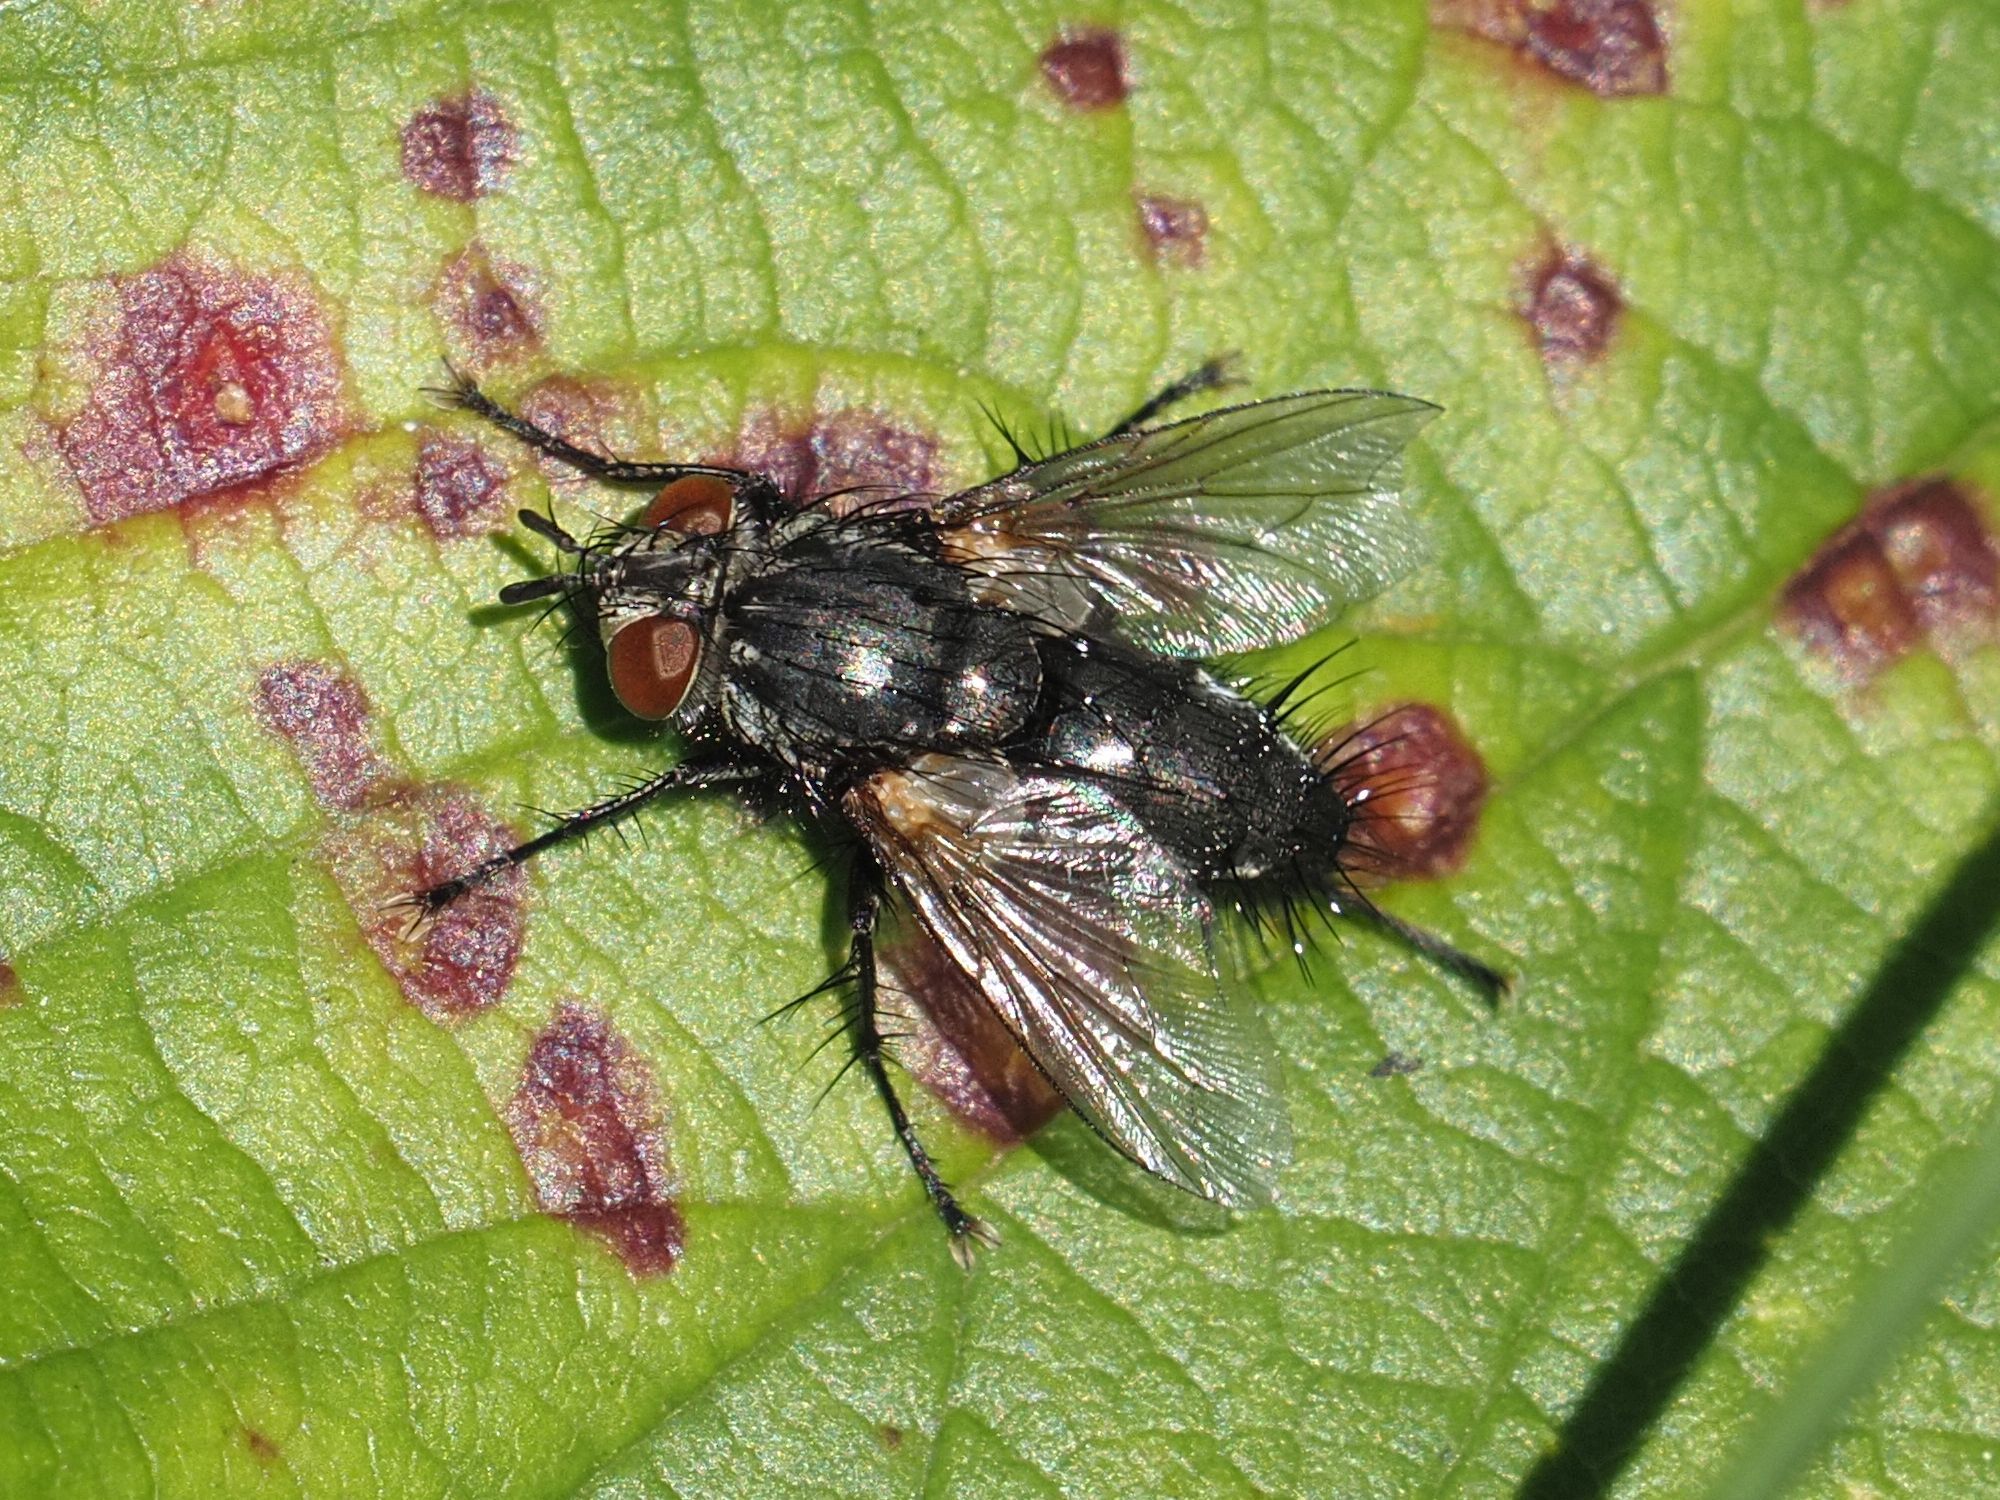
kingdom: Animalia
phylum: Arthropoda
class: Insecta
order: Diptera
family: Tachinidae
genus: Voria
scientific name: Voria ruralis
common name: Parasitic fly
